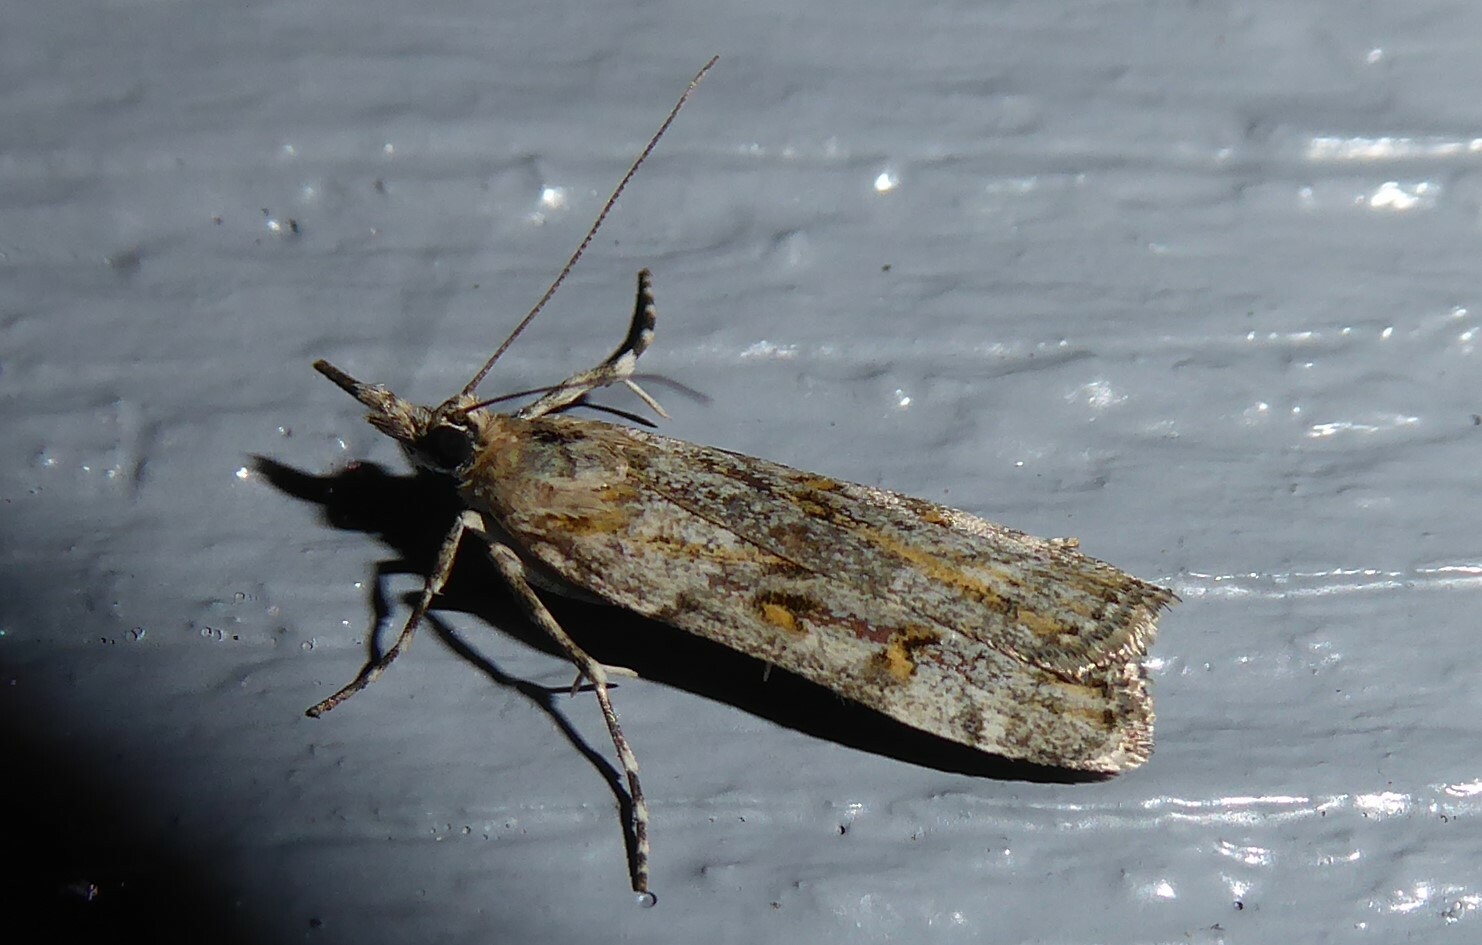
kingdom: Animalia
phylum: Arthropoda
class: Insecta
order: Lepidoptera
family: Crambidae
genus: Scoparia
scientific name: Scoparia tetracycla
